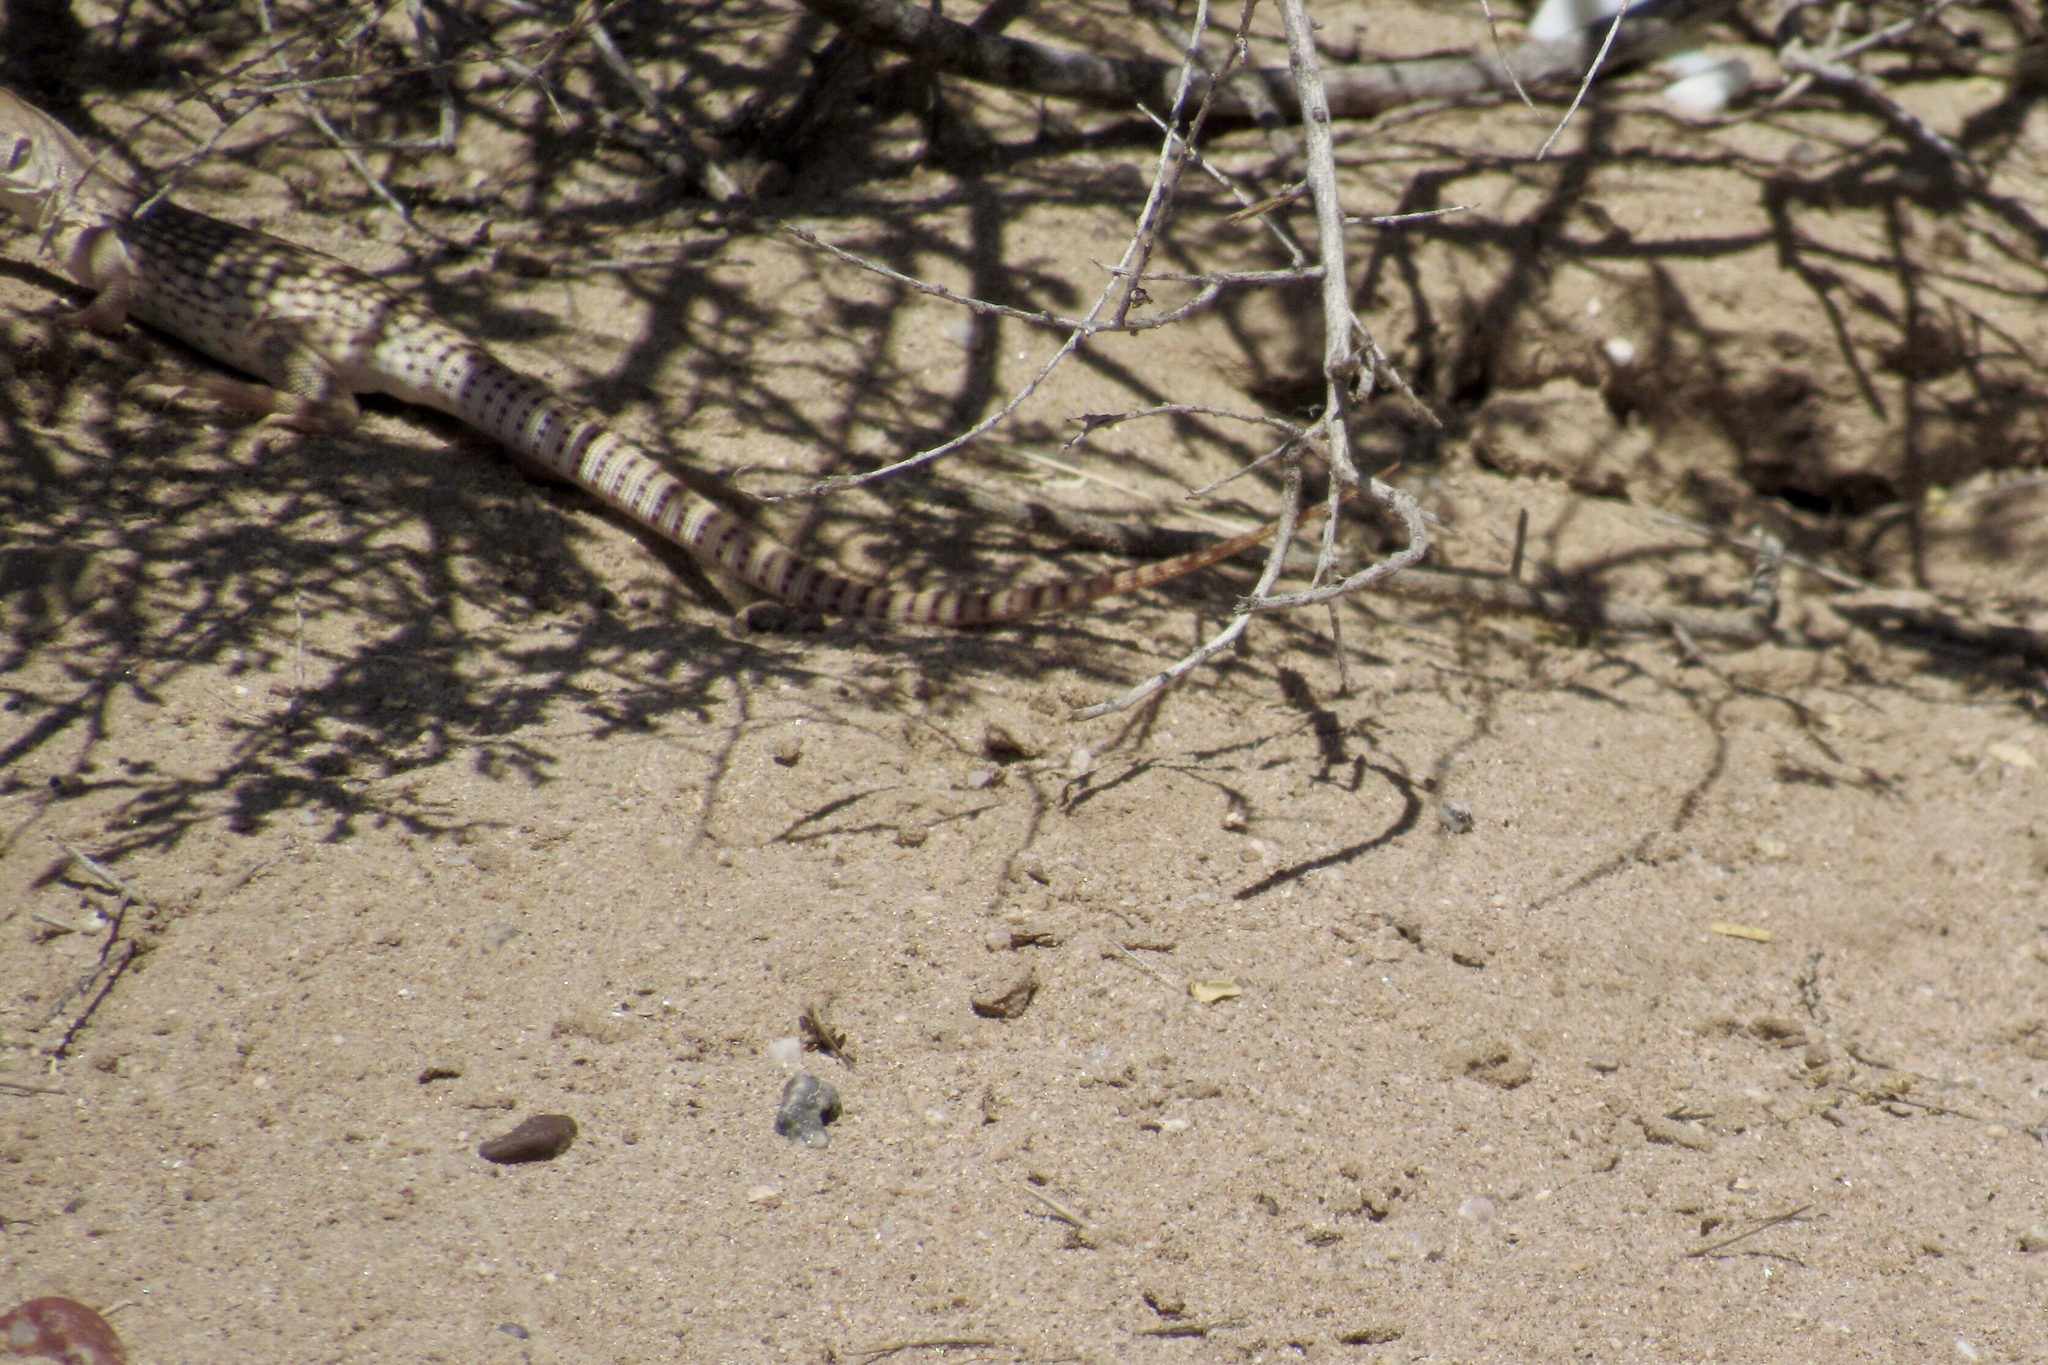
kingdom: Animalia
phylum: Chordata
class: Squamata
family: Iguanidae
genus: Dipsosaurus
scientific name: Dipsosaurus dorsalis
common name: Desert iguana
